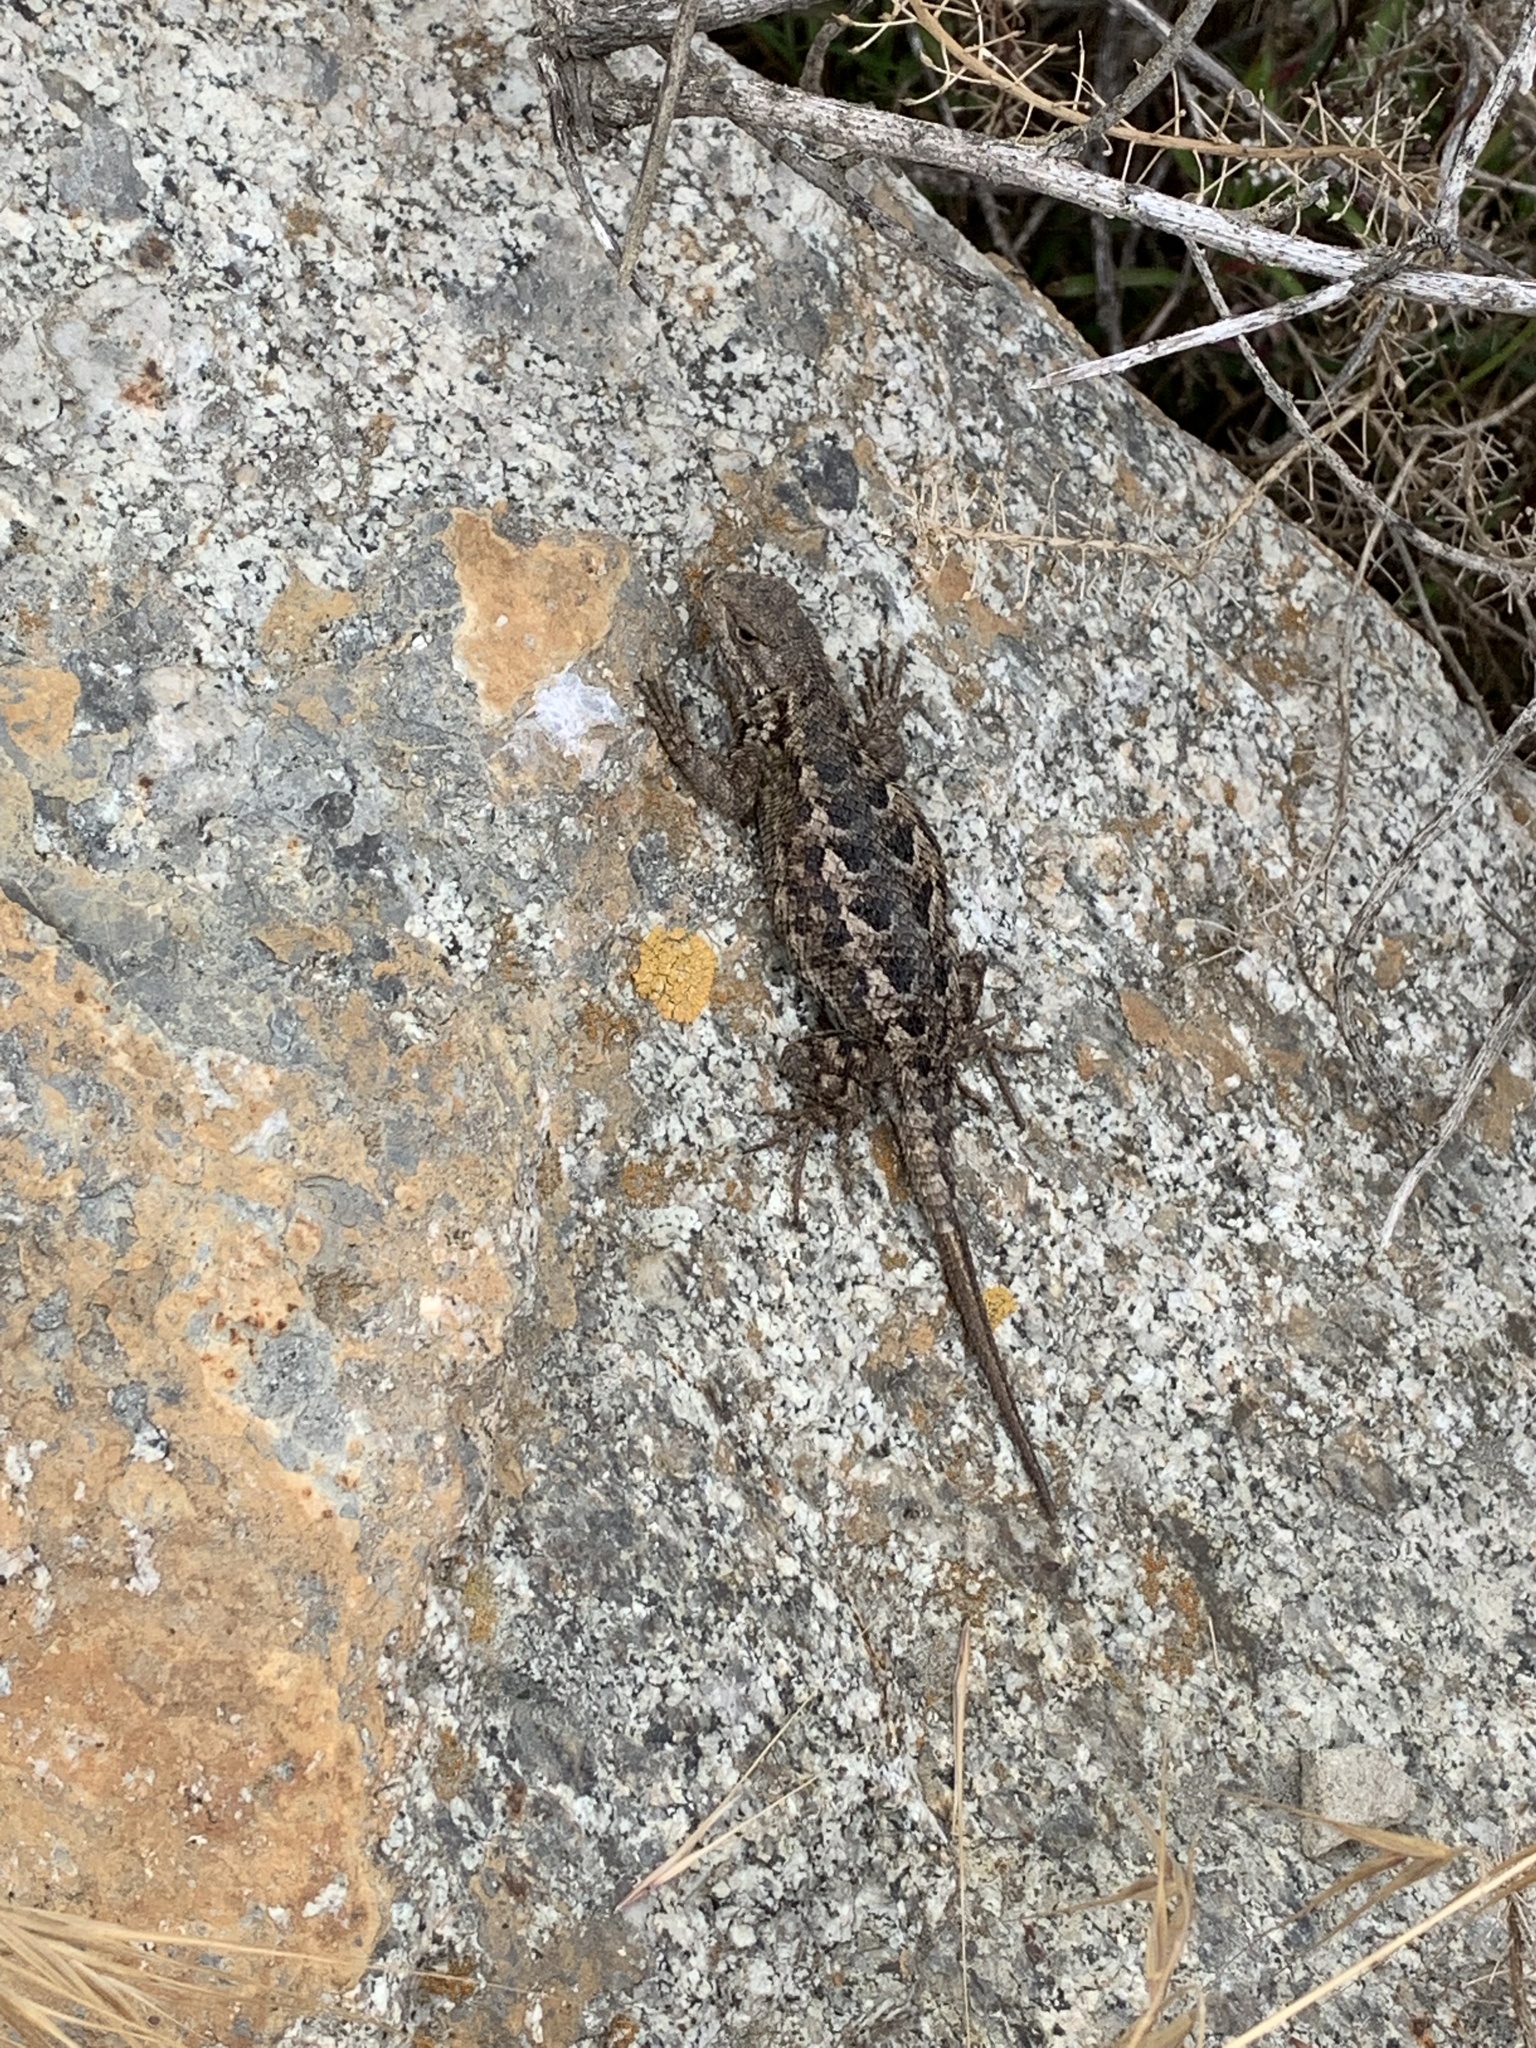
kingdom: Animalia
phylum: Chordata
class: Squamata
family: Phrynosomatidae
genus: Sceloporus
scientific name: Sceloporus occidentalis
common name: Western fence lizard
